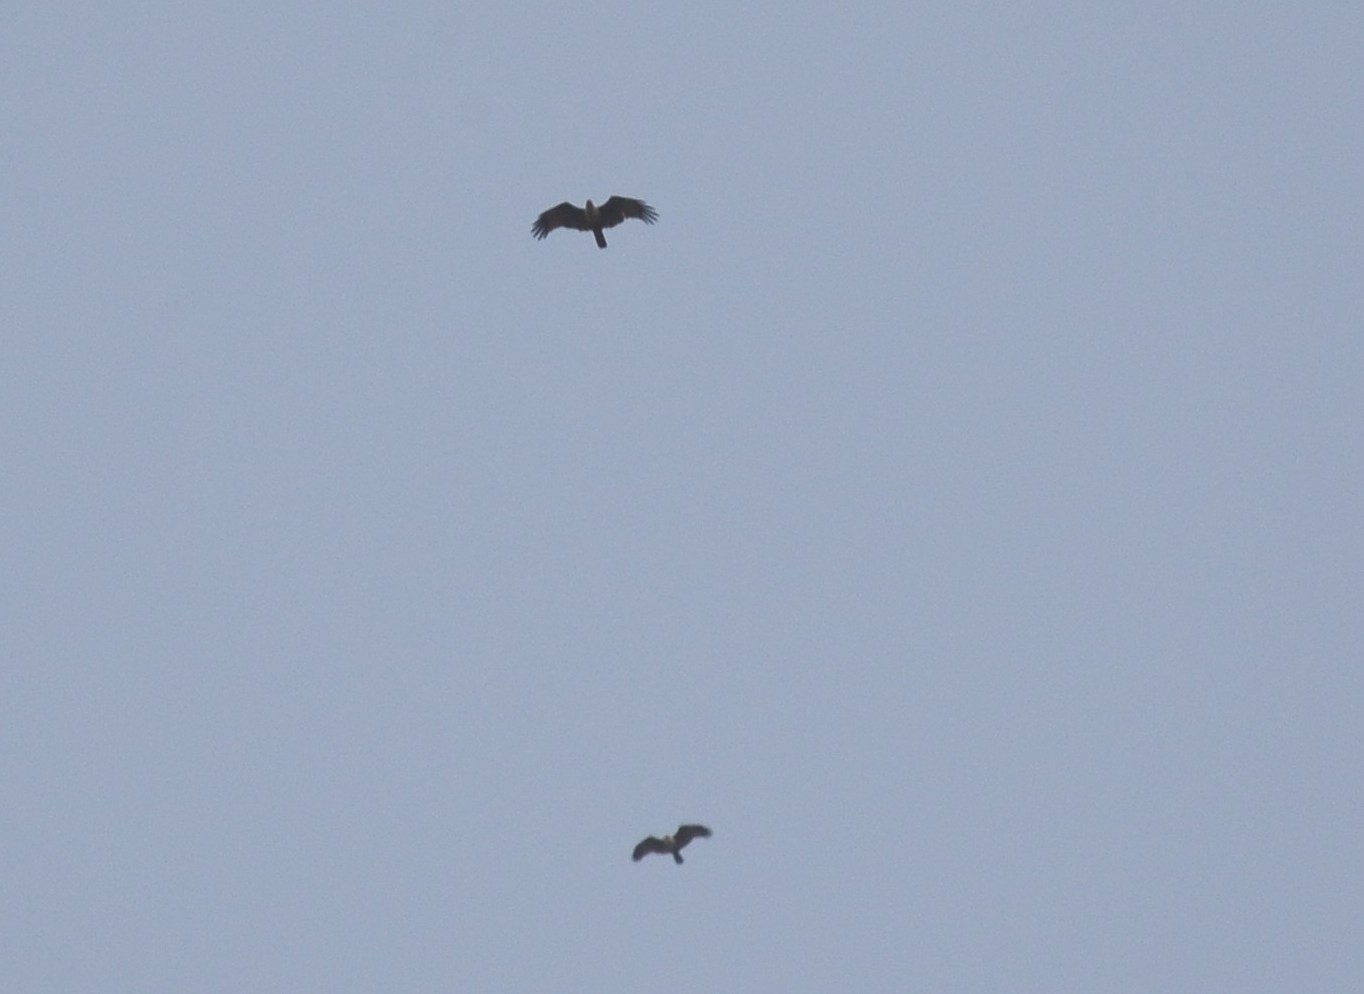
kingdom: Animalia
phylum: Chordata
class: Aves
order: Accipitriformes
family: Accipitridae
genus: Haliastur
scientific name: Haliastur indus
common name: Brahminy kite
